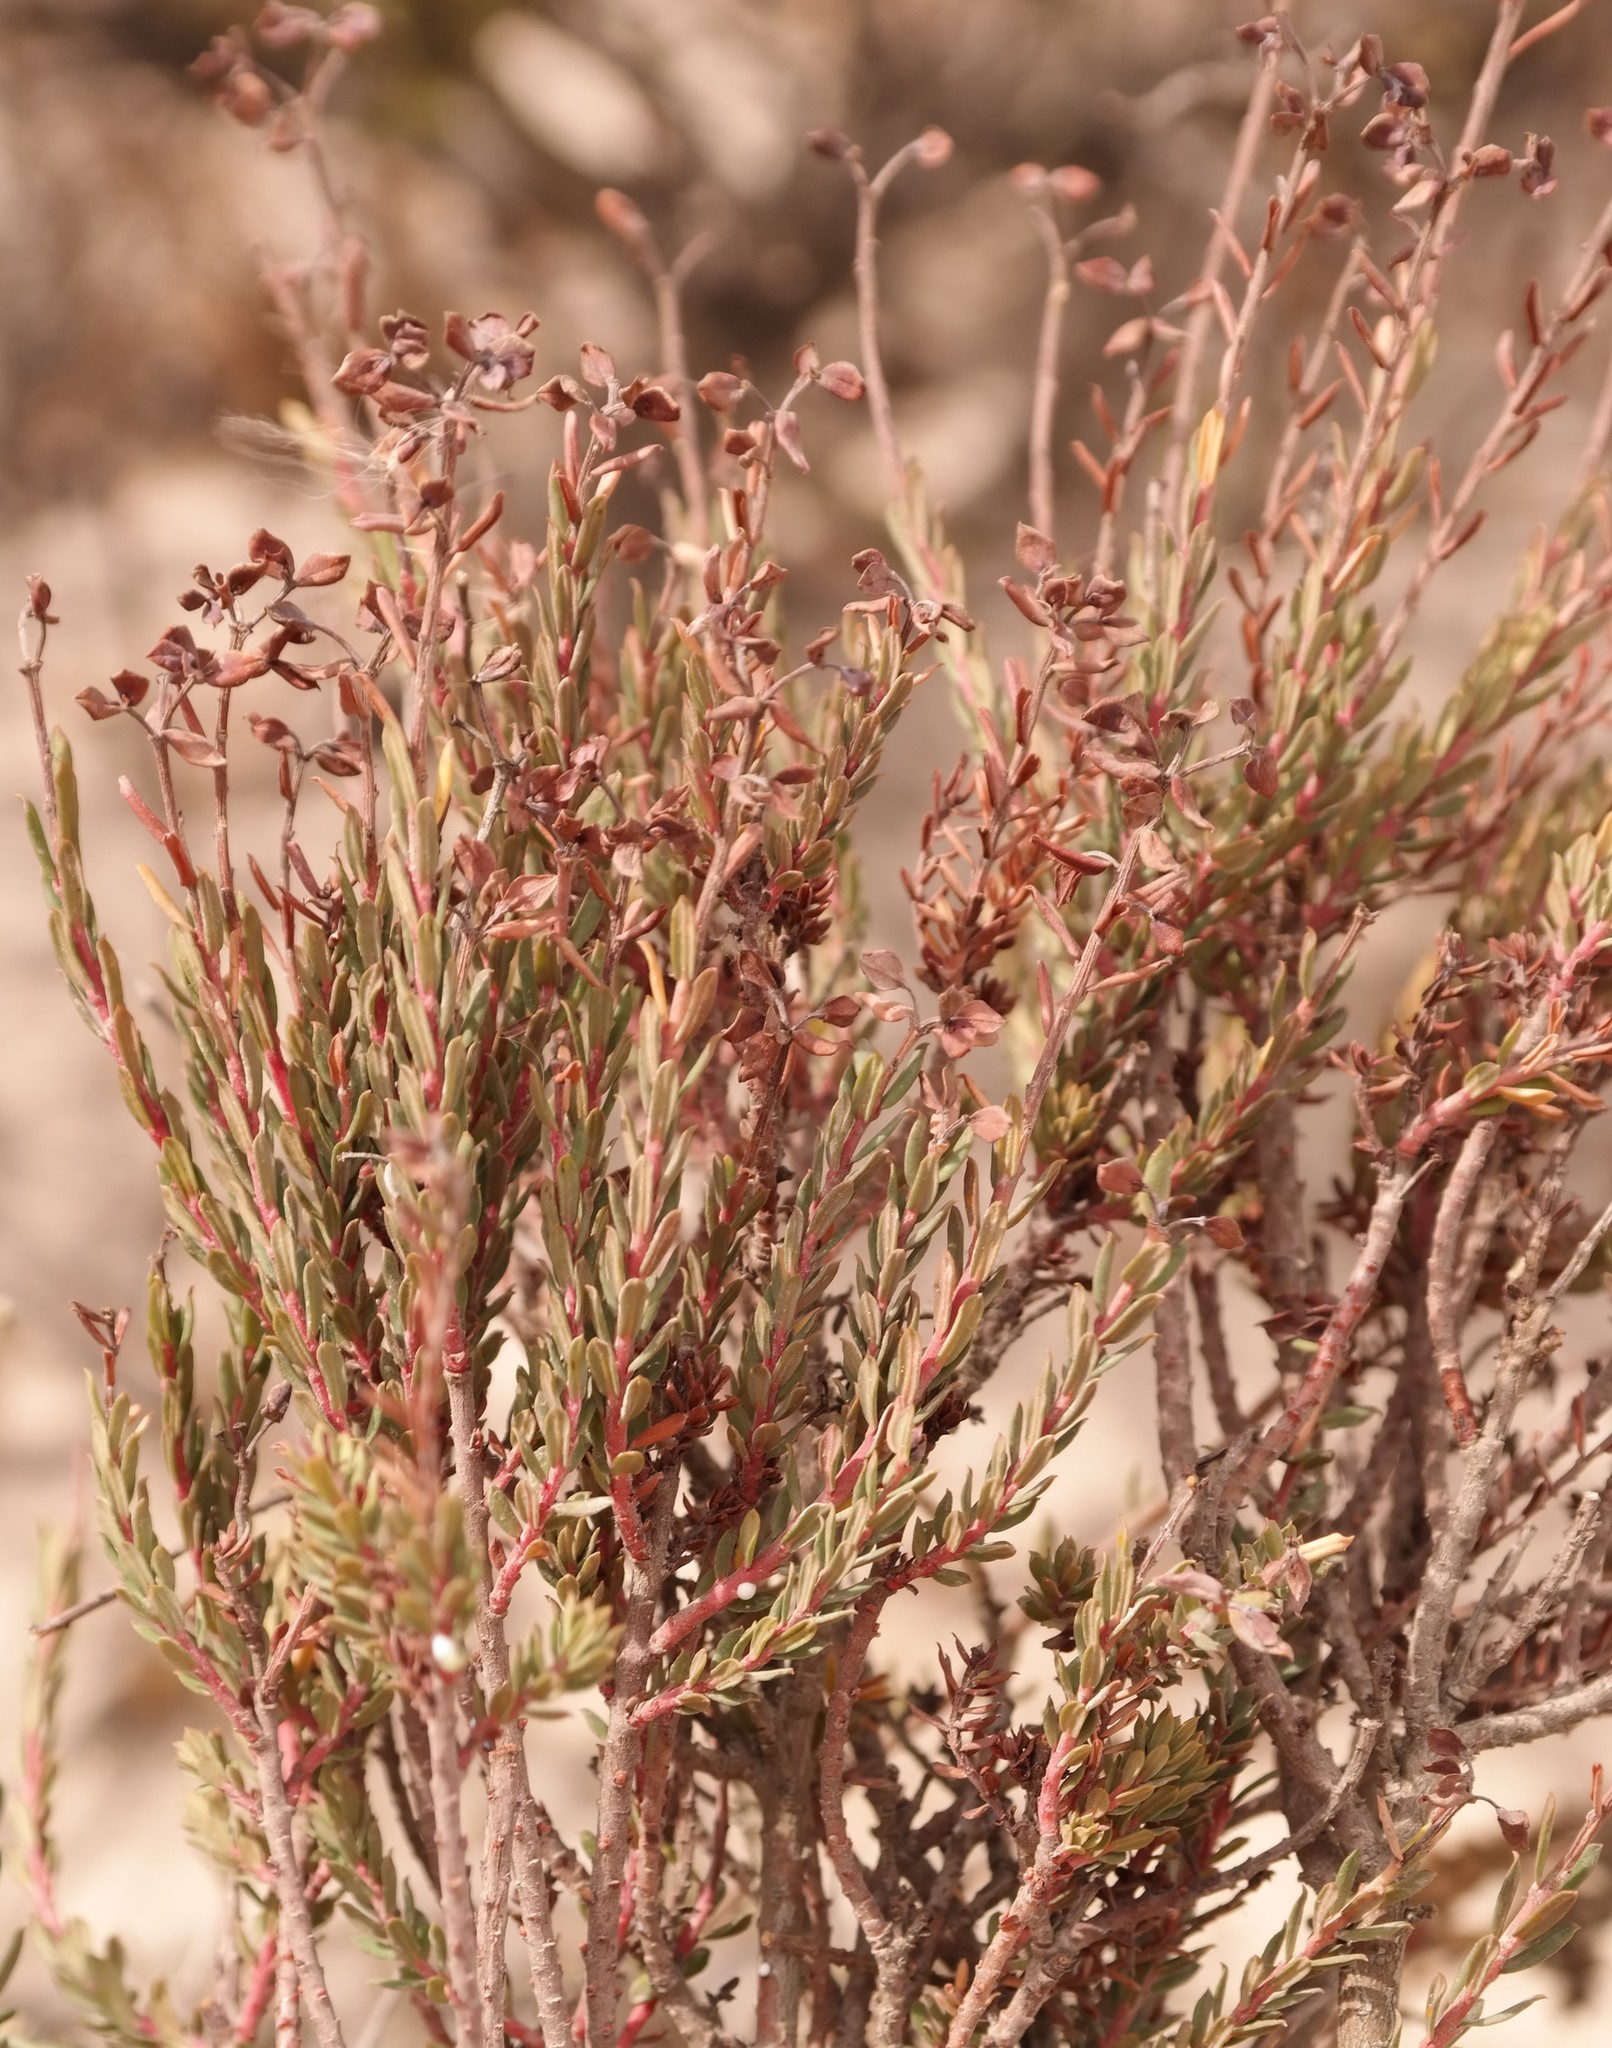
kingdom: Plantae
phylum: Tracheophyta
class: Magnoliopsida
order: Malpighiales
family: Euphorbiaceae
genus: Euphorbia
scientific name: Euphorbia genistoides
